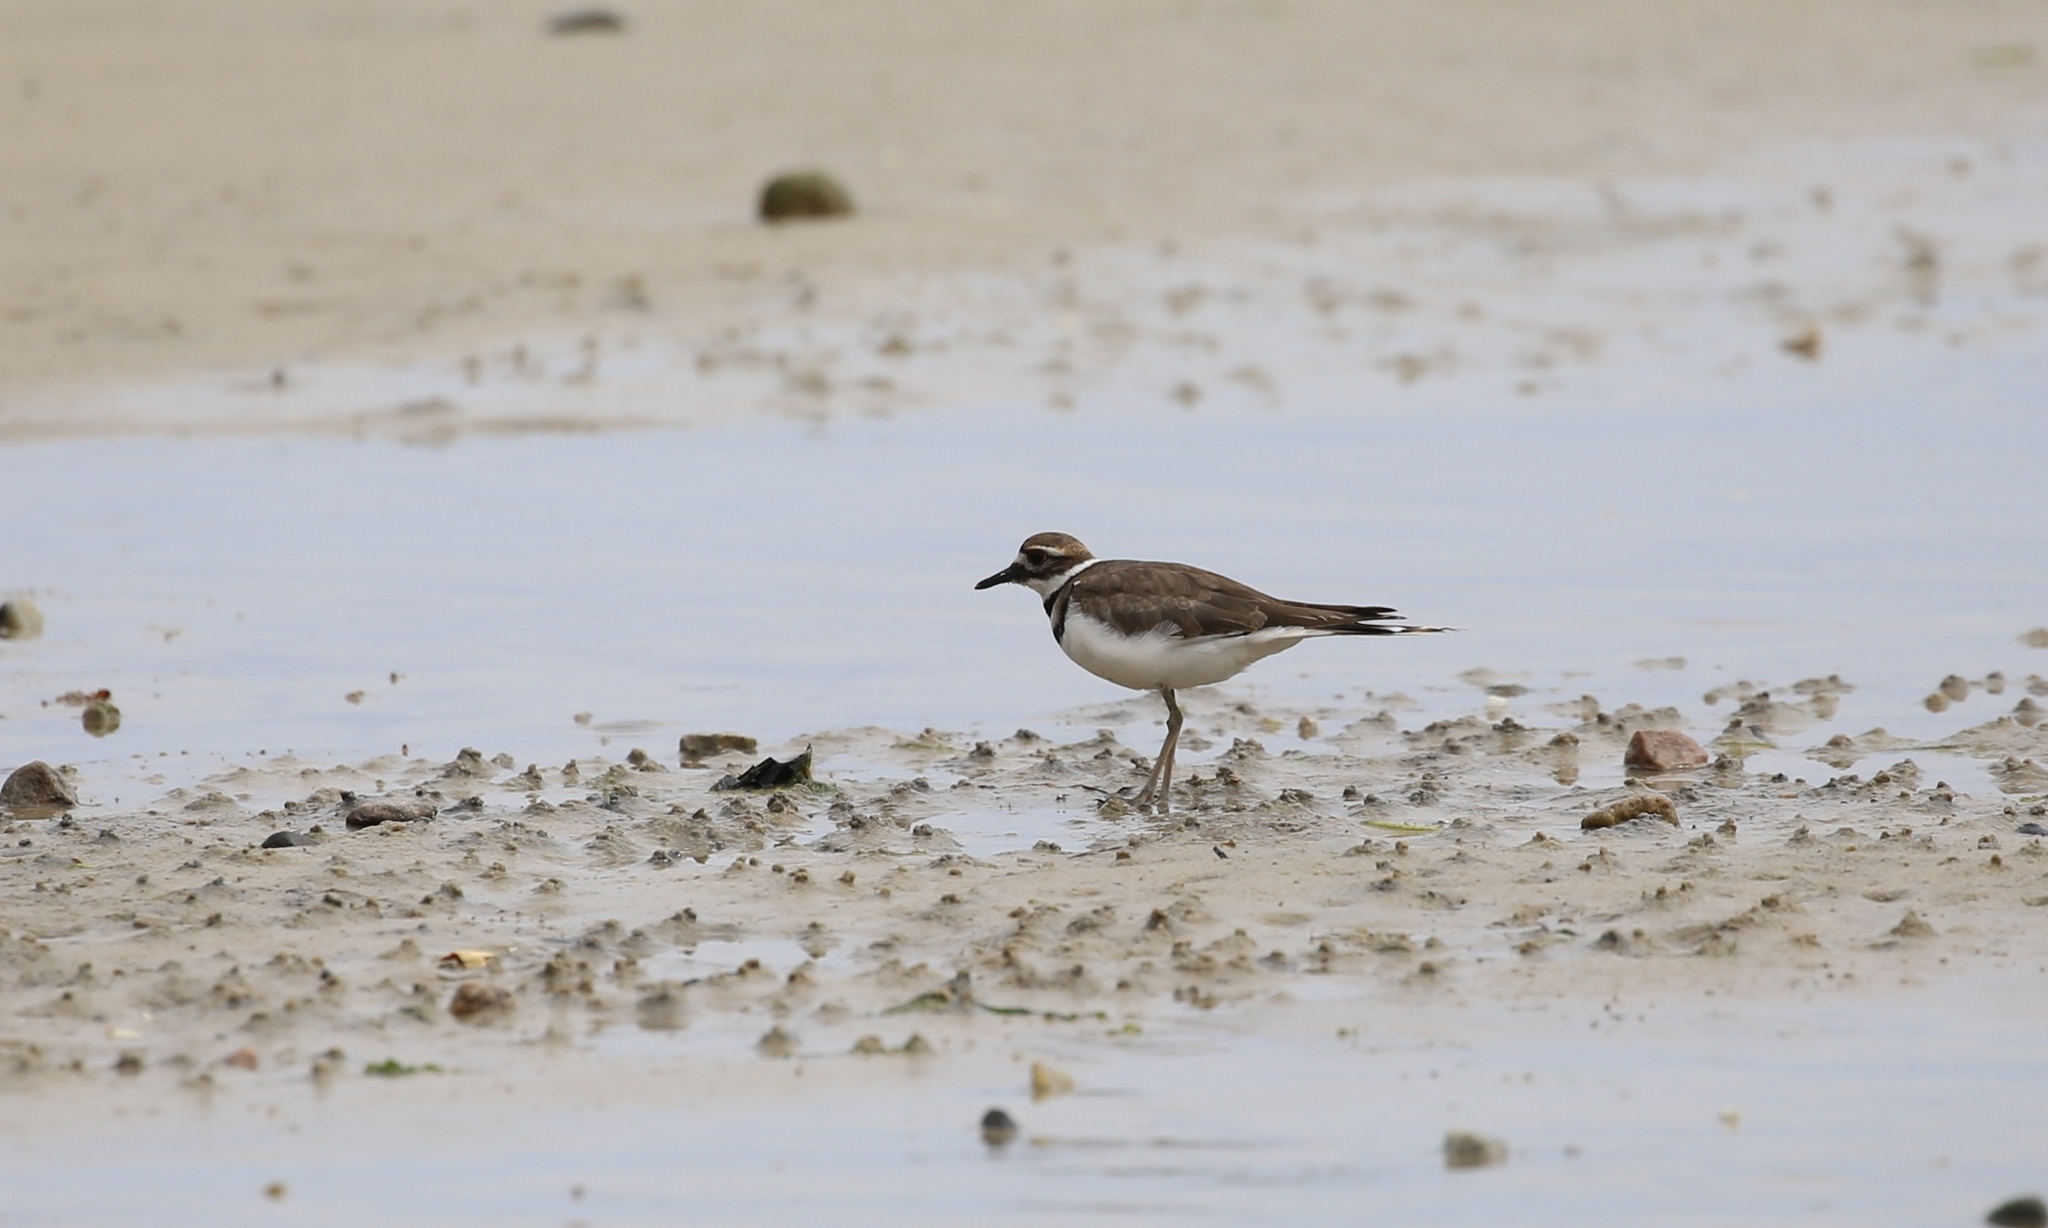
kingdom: Animalia
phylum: Chordata
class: Aves
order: Charadriiformes
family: Charadriidae
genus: Charadrius
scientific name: Charadrius vociferus
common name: Killdeer
